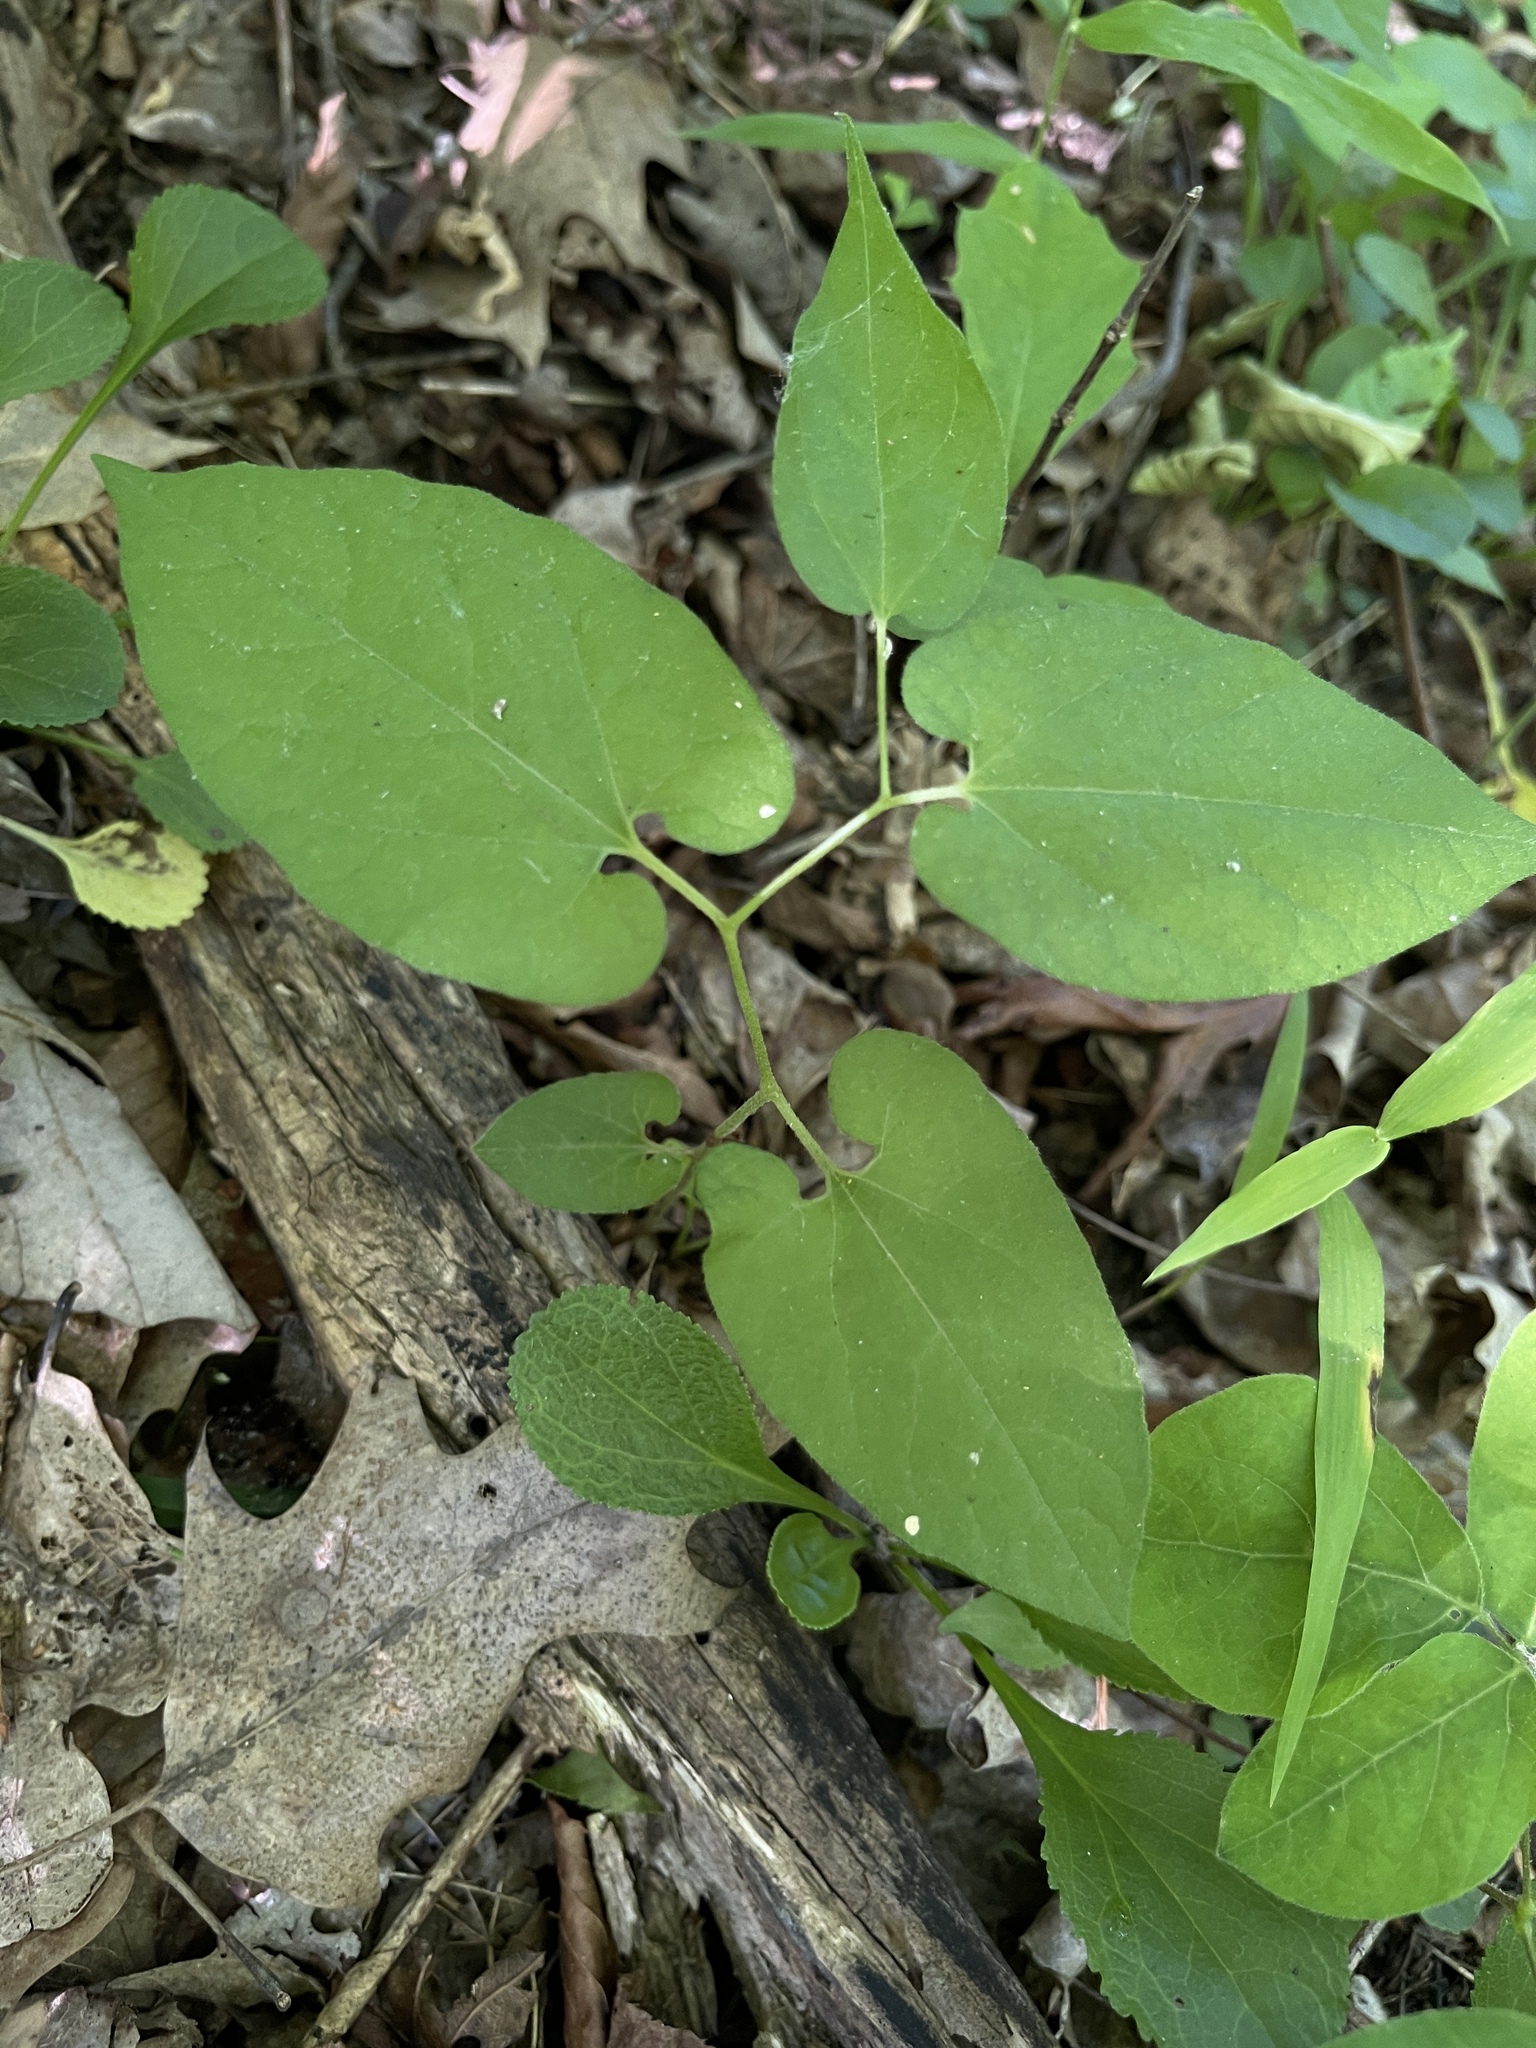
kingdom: Plantae
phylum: Tracheophyta
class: Magnoliopsida
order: Piperales
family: Aristolochiaceae
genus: Endodeca
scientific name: Endodeca serpentaria
